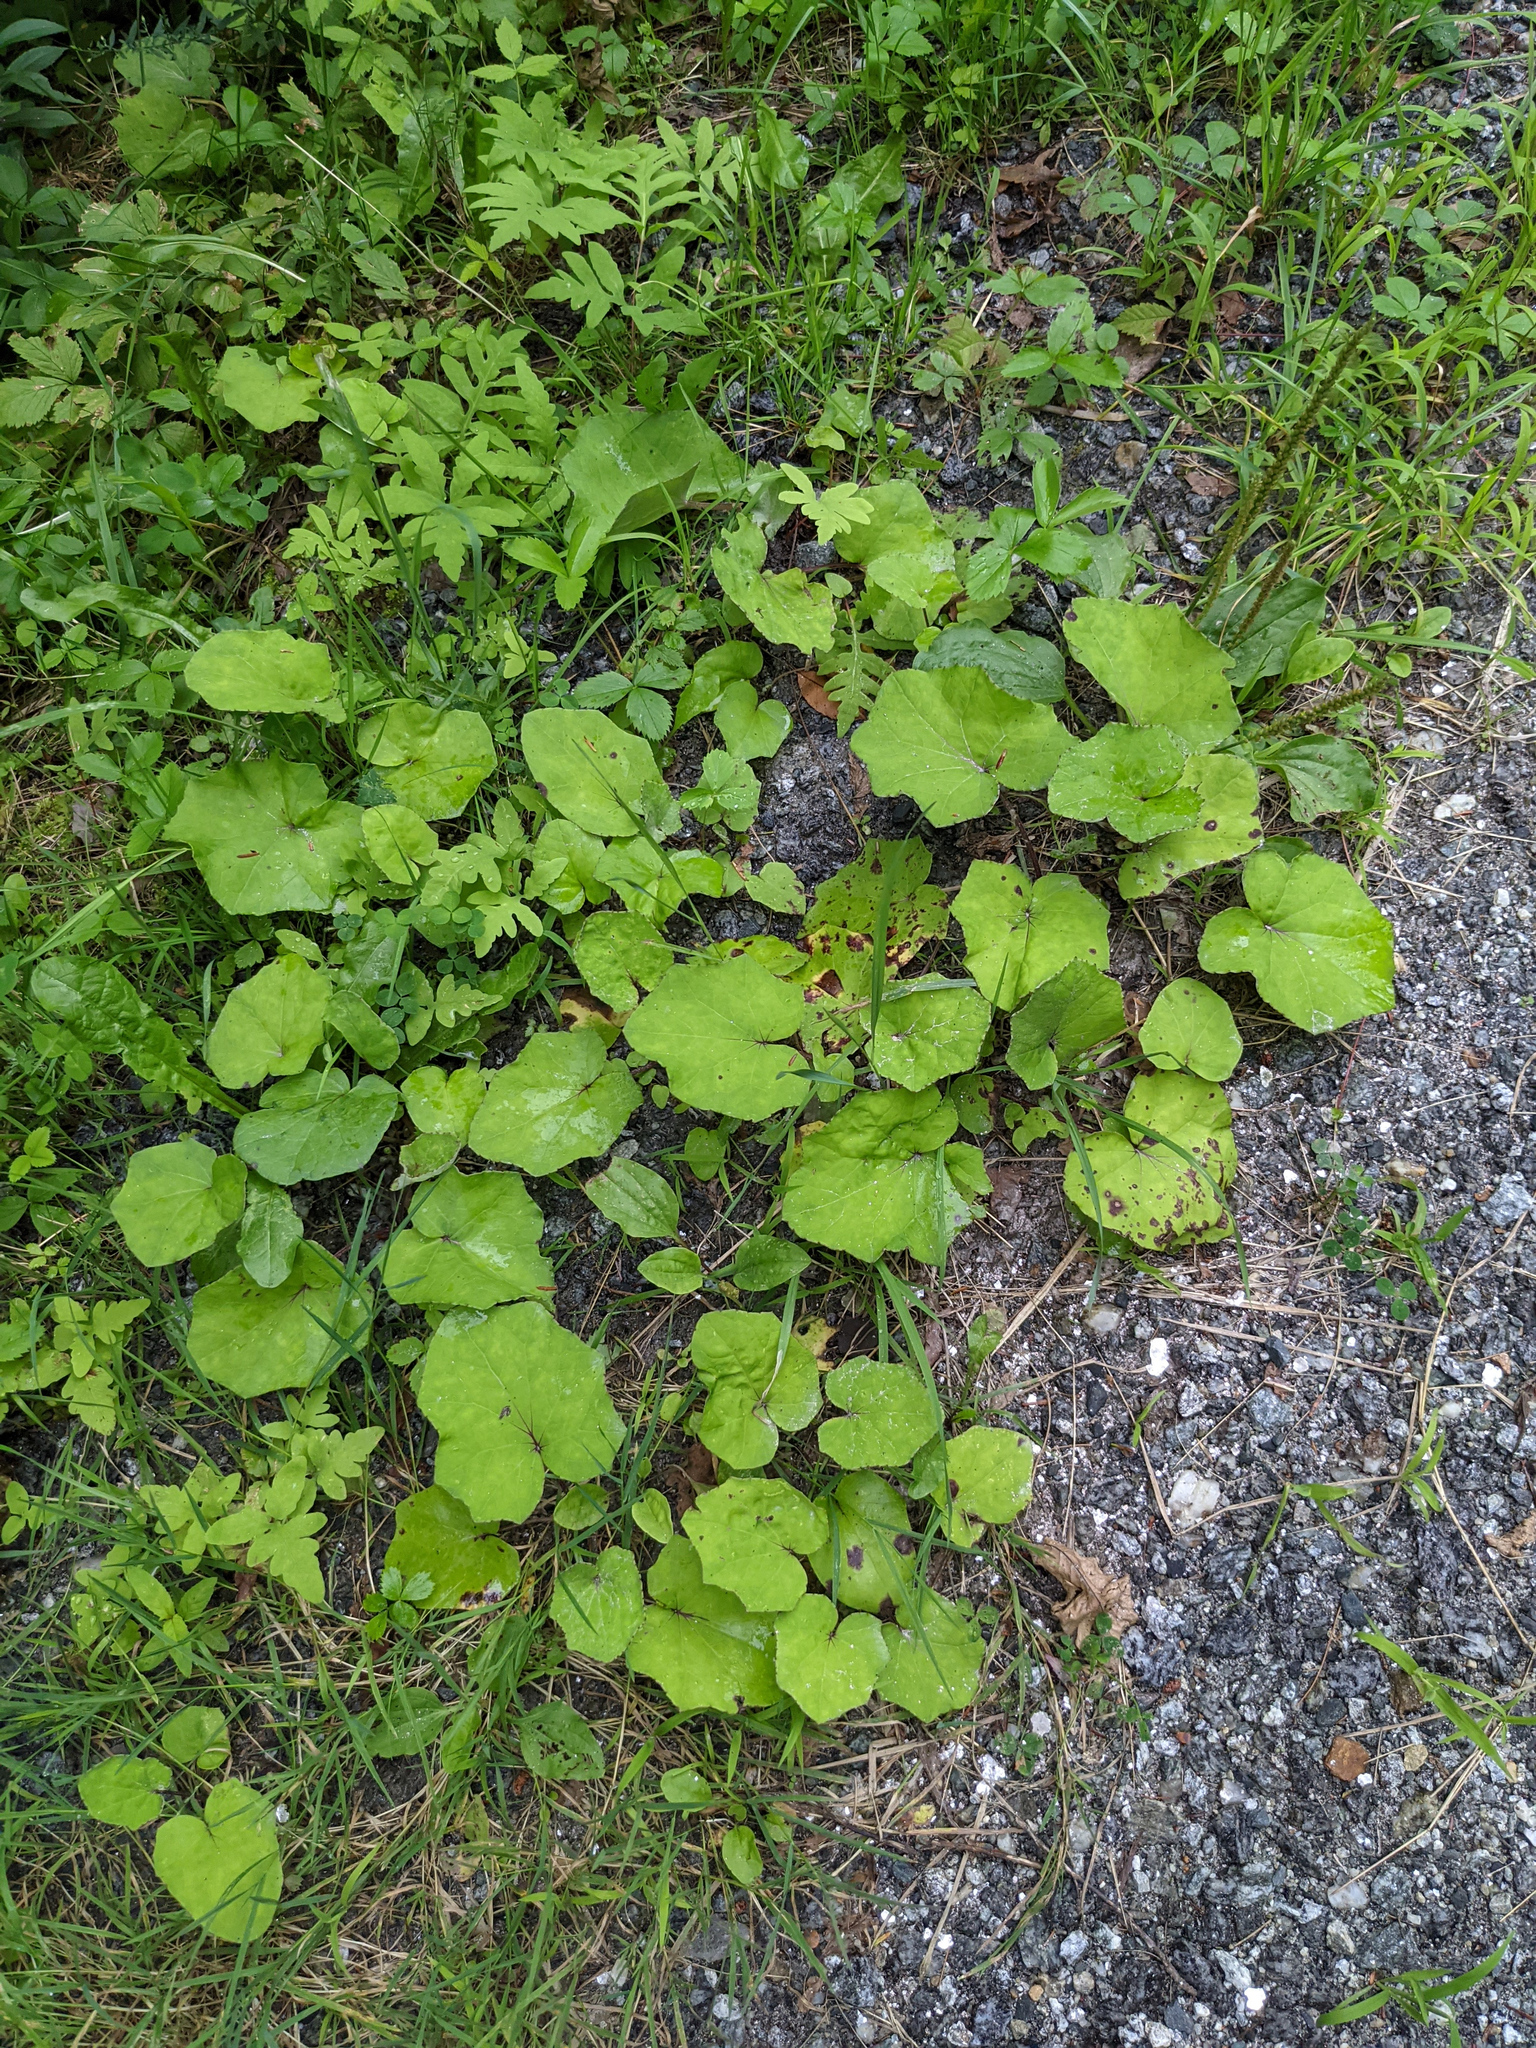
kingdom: Plantae
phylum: Tracheophyta
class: Magnoliopsida
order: Asterales
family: Asteraceae
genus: Tussilago
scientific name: Tussilago farfara
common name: Coltsfoot
